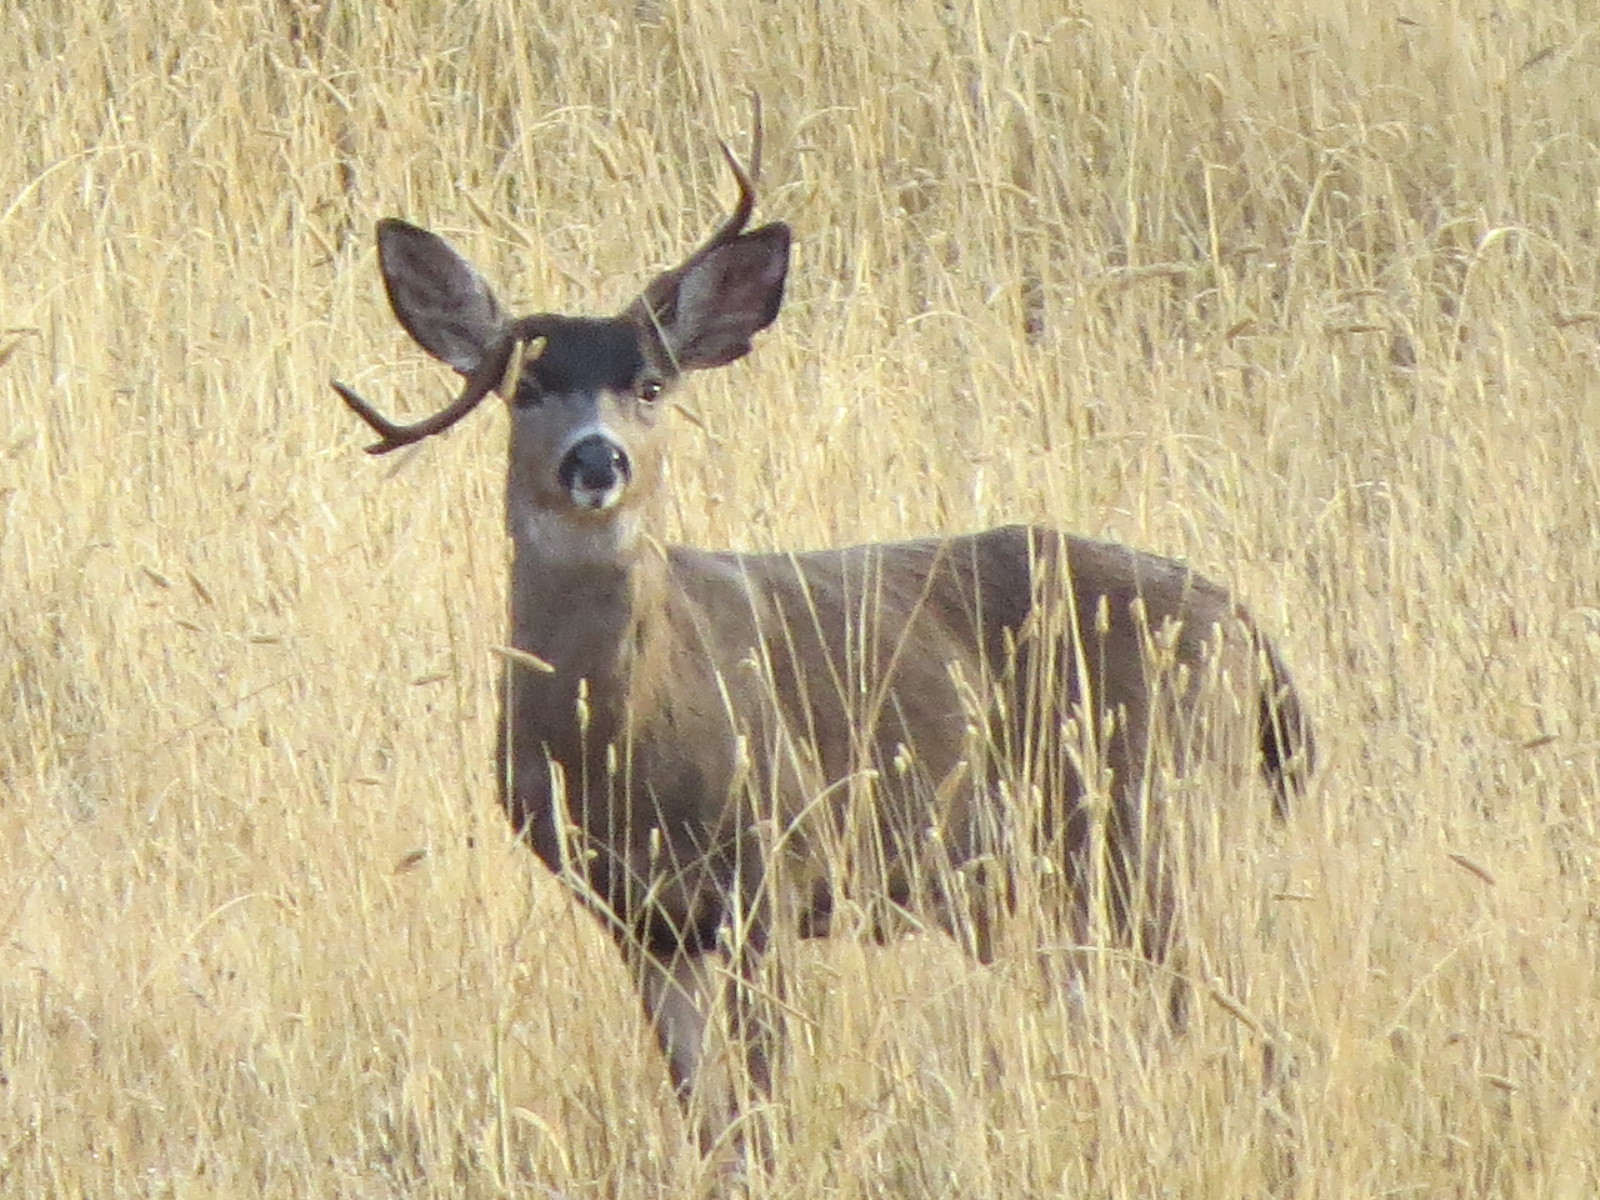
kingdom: Animalia
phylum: Chordata
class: Mammalia
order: Artiodactyla
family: Cervidae
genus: Odocoileus
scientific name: Odocoileus hemionus
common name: Mule deer
